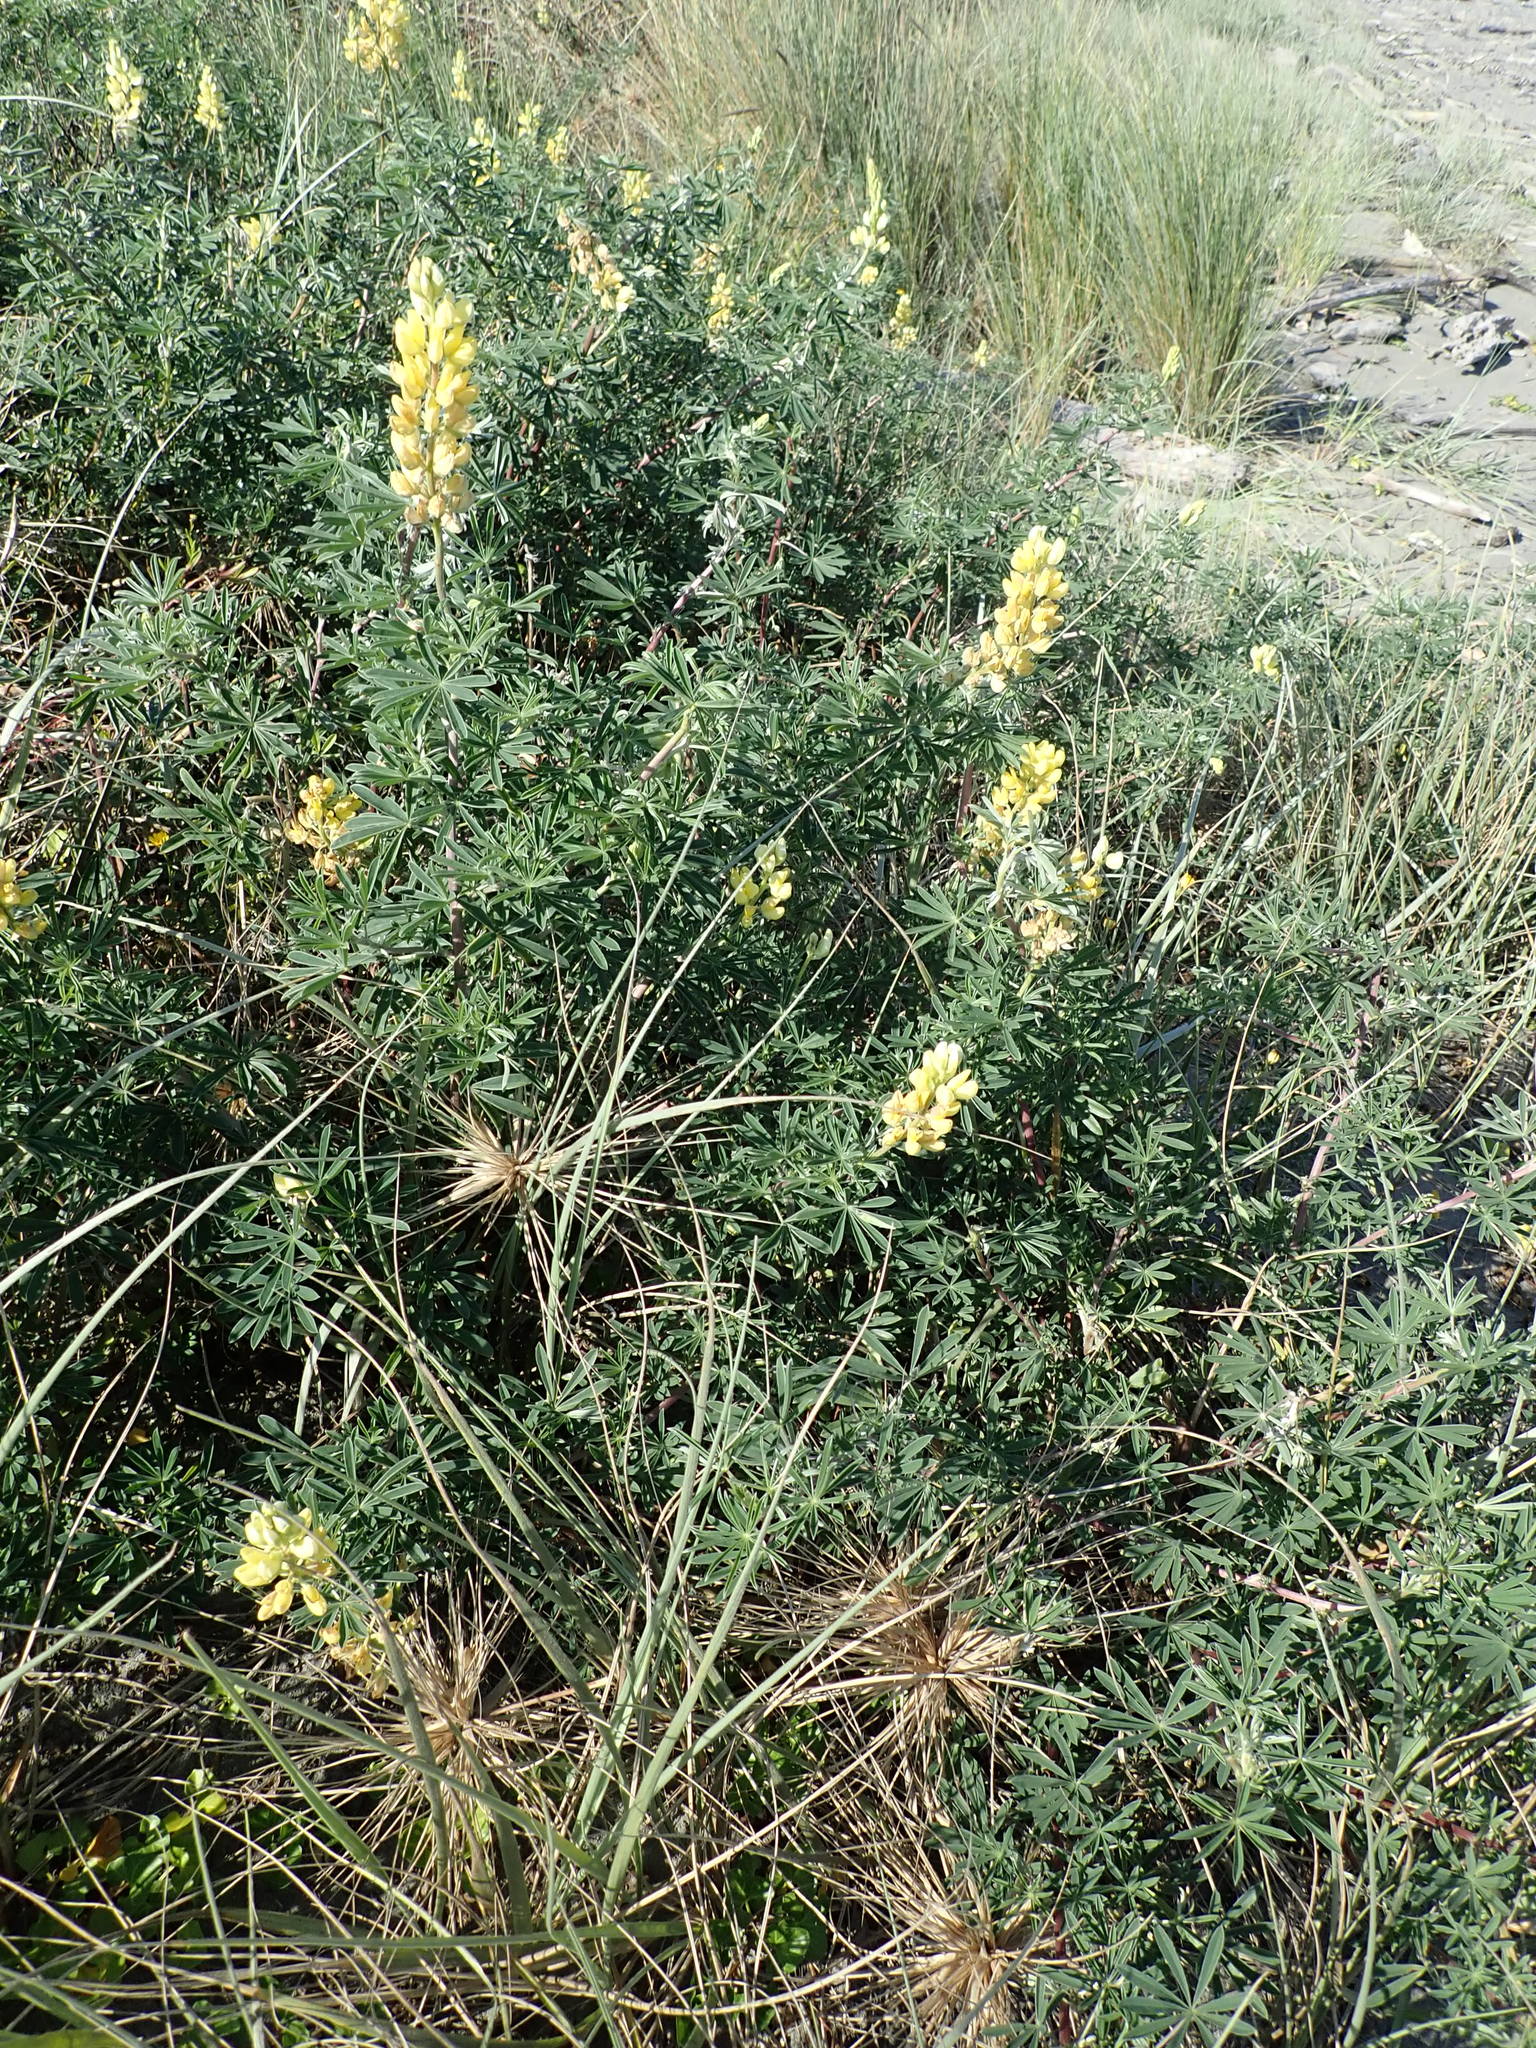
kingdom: Plantae
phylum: Tracheophyta
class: Magnoliopsida
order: Fabales
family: Fabaceae
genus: Lupinus
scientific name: Lupinus arboreus
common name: Yellow bush lupine
